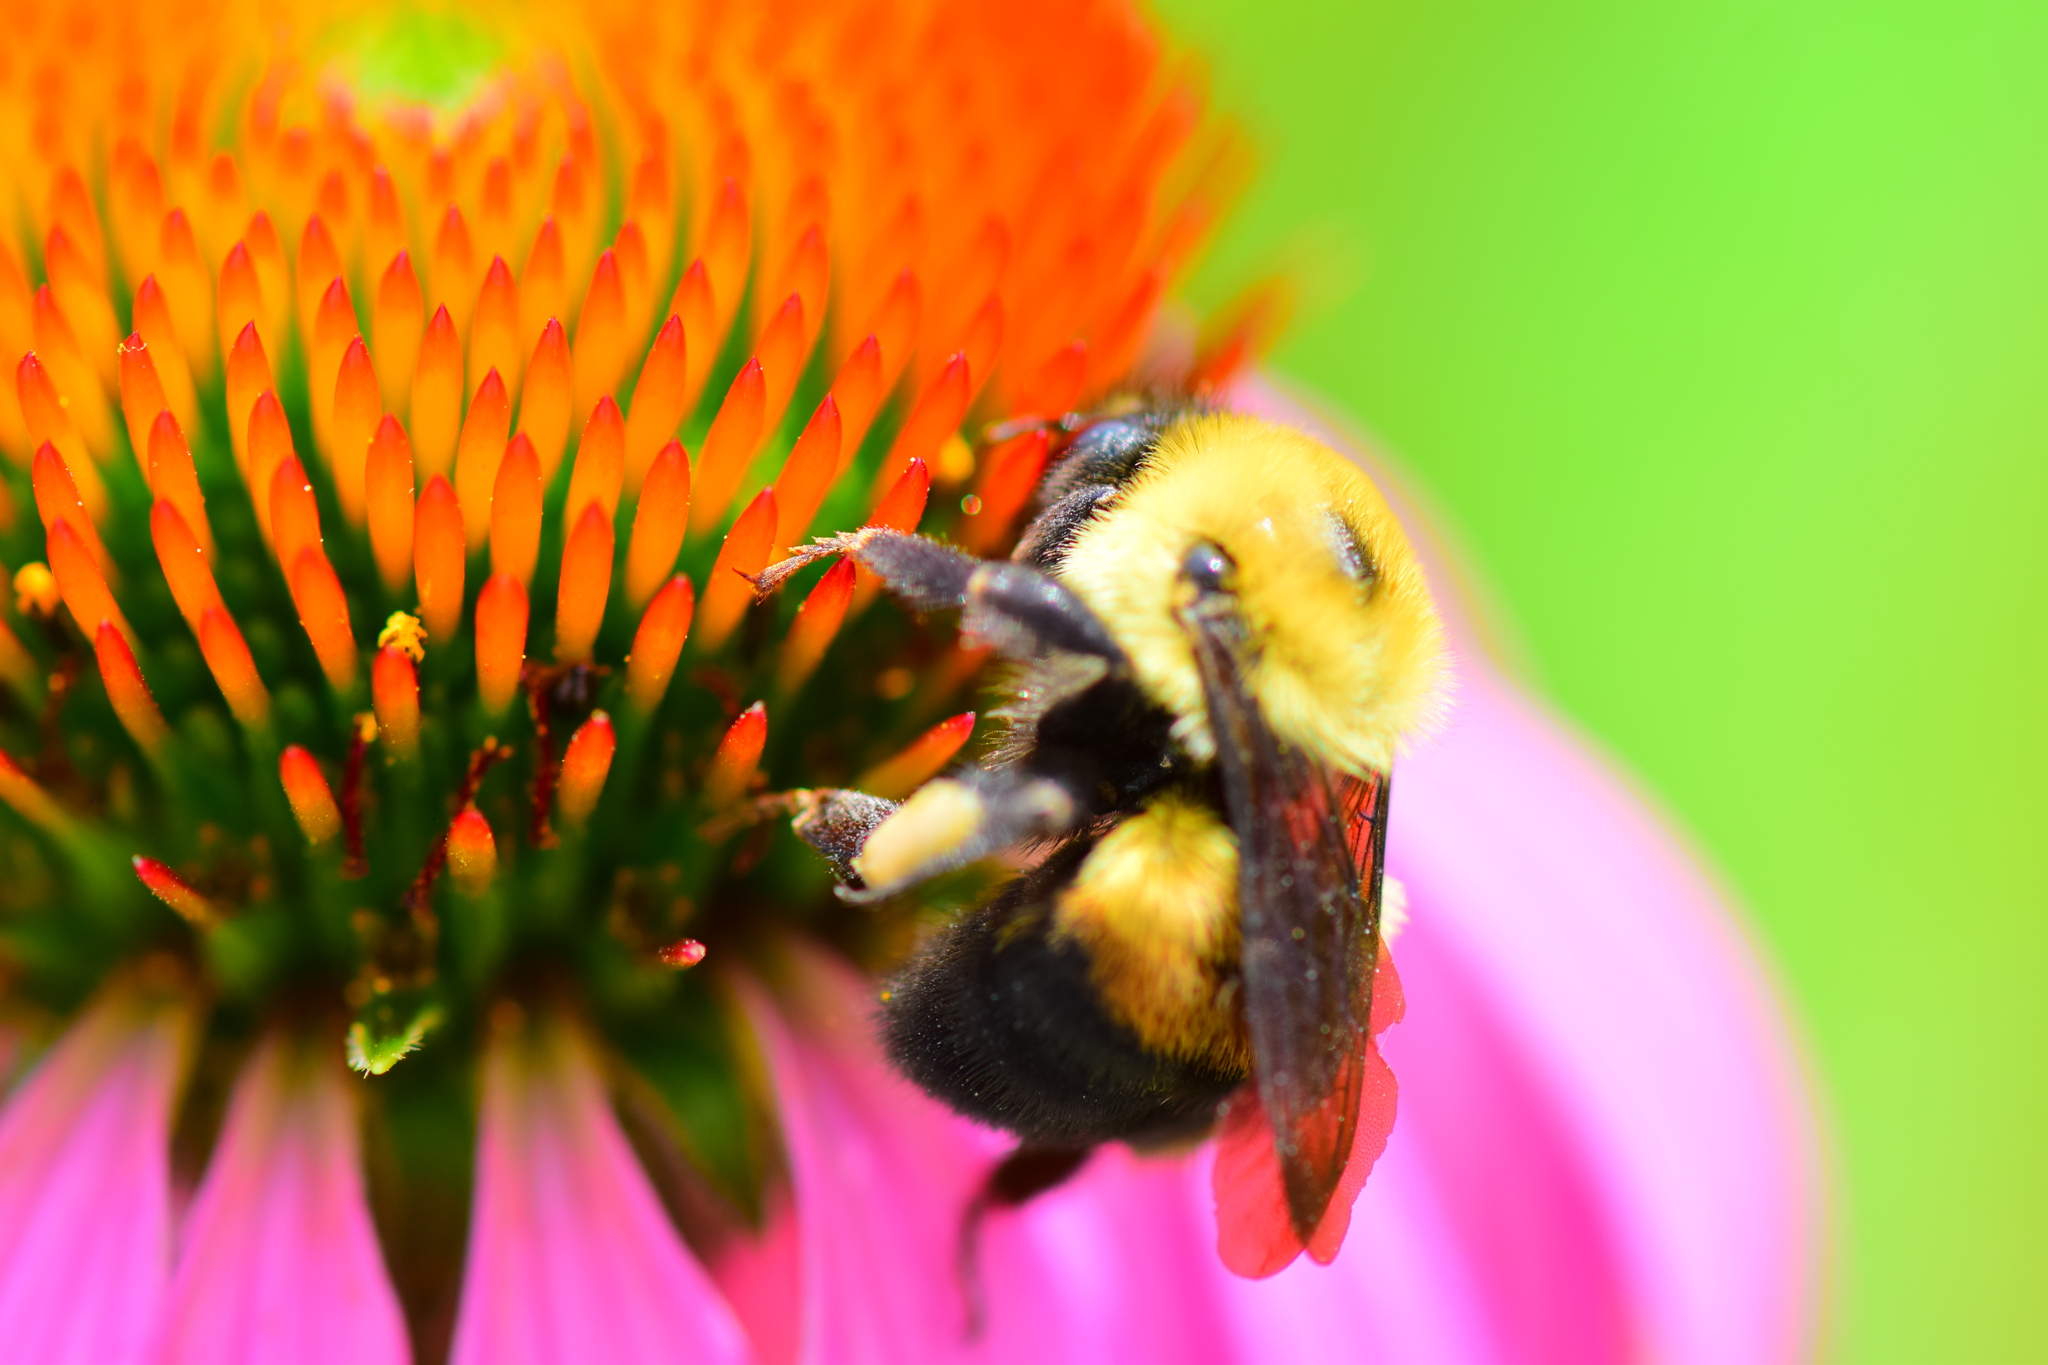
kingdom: Animalia
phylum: Arthropoda
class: Insecta
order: Hymenoptera
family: Apidae
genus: Bombus
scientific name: Bombus griseocollis
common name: Brown-belted bumble bee
